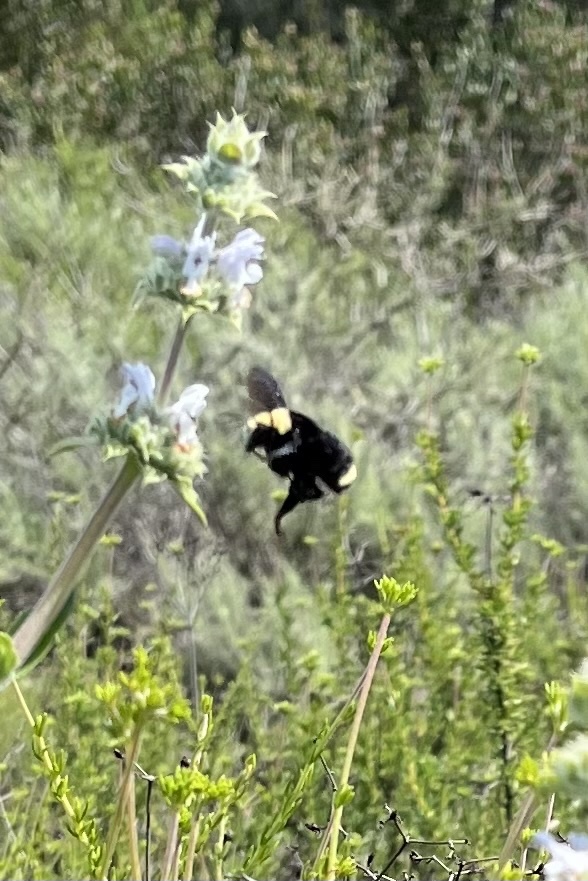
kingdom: Animalia
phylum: Arthropoda
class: Insecta
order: Hymenoptera
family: Apidae
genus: Bombus
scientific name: Bombus vosnesenskii
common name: Vosnesensky bumble bee
